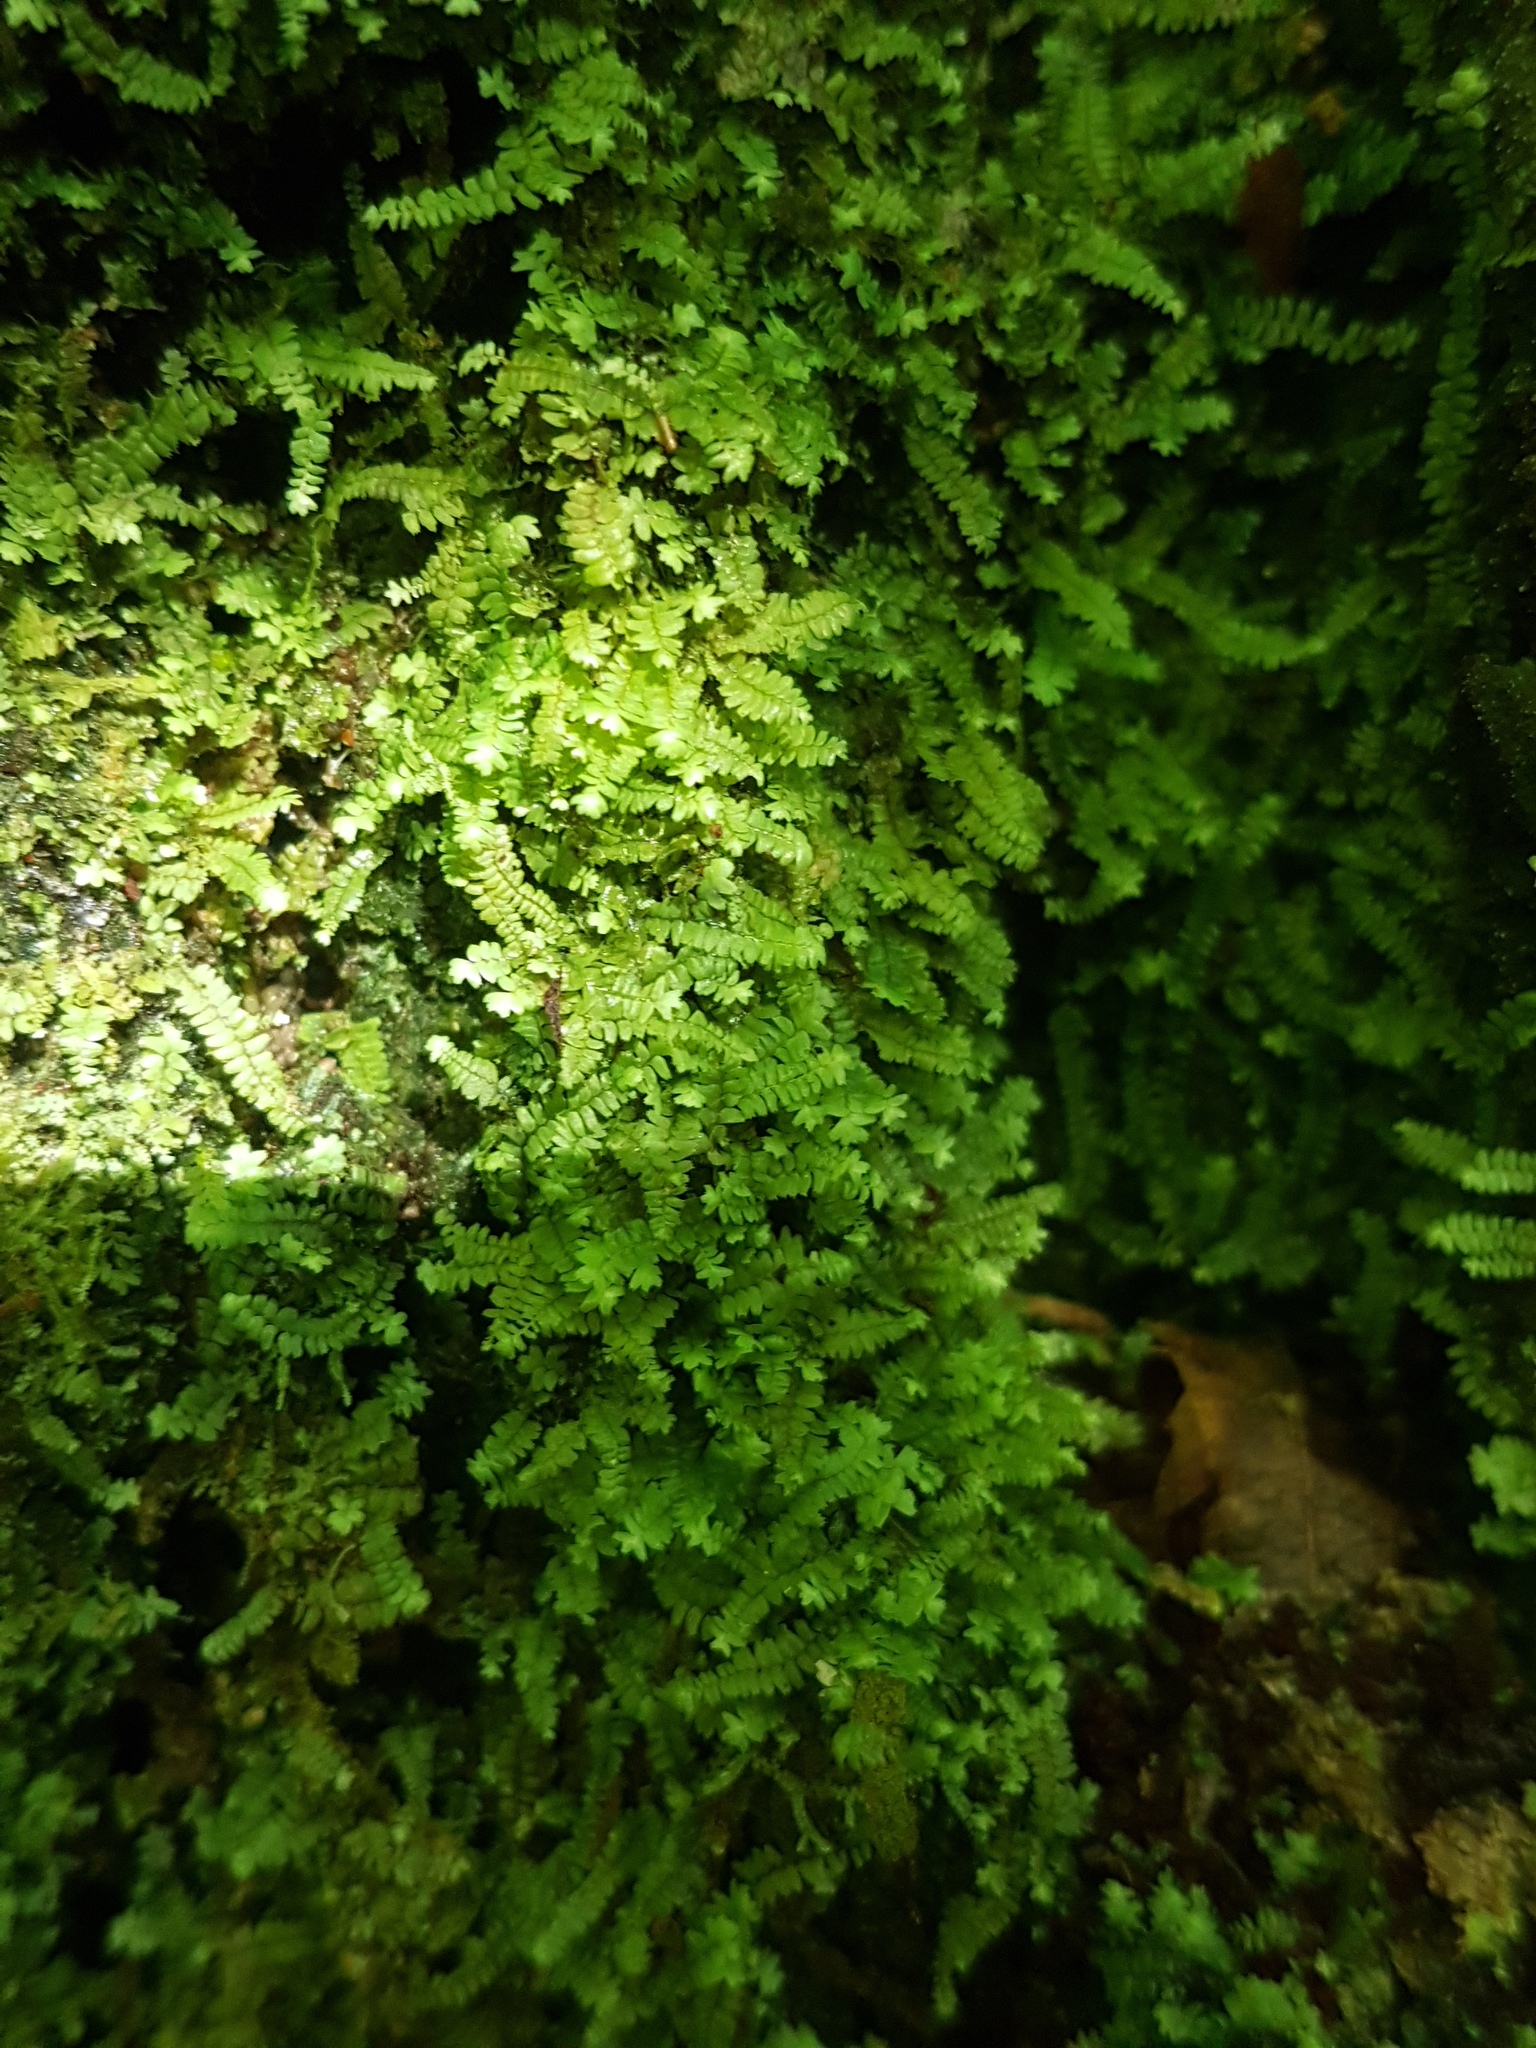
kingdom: Plantae
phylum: Bryophyta
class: Bryopsida
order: Rhizogoniales
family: Calomniaceae
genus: Calomnion
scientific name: Calomnion complanatum
